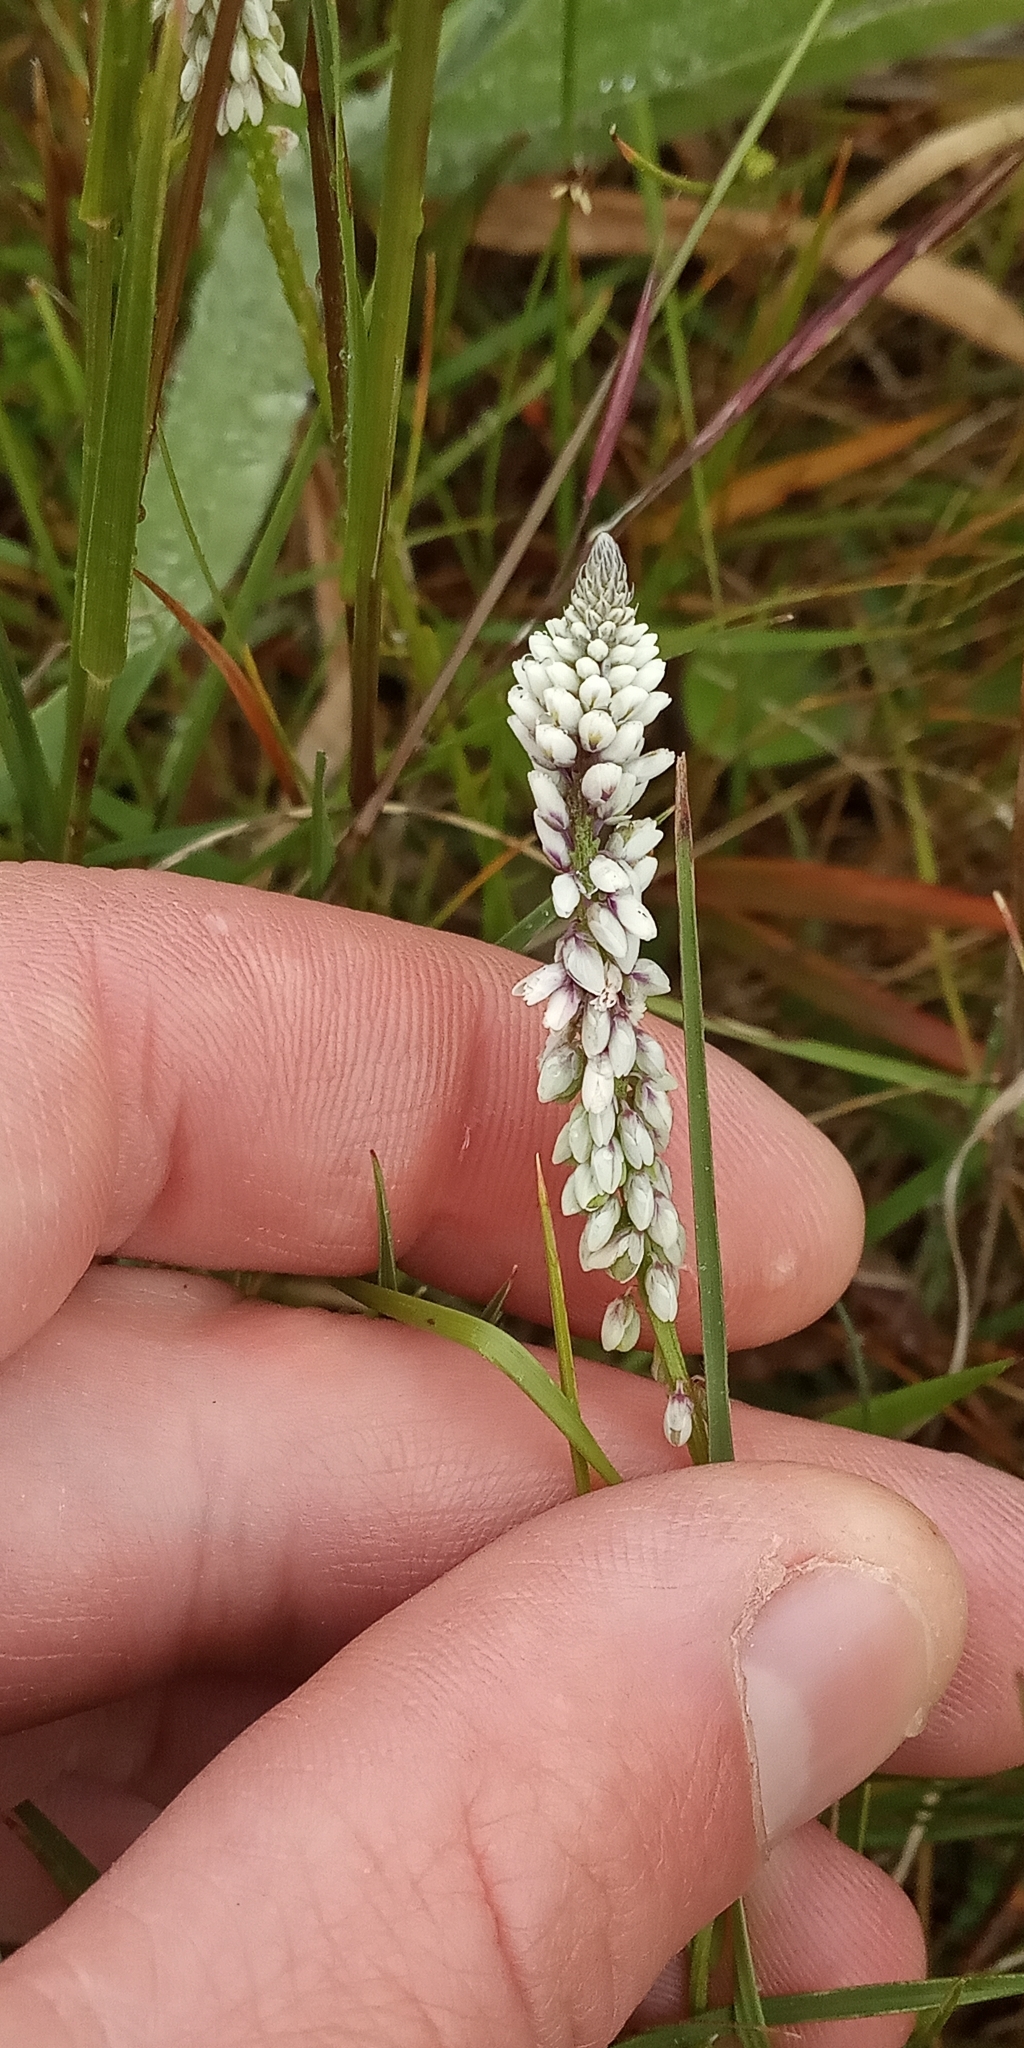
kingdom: Plantae
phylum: Tracheophyta
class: Magnoliopsida
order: Fabales
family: Polygalaceae
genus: Polygala
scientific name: Polygala linoides
